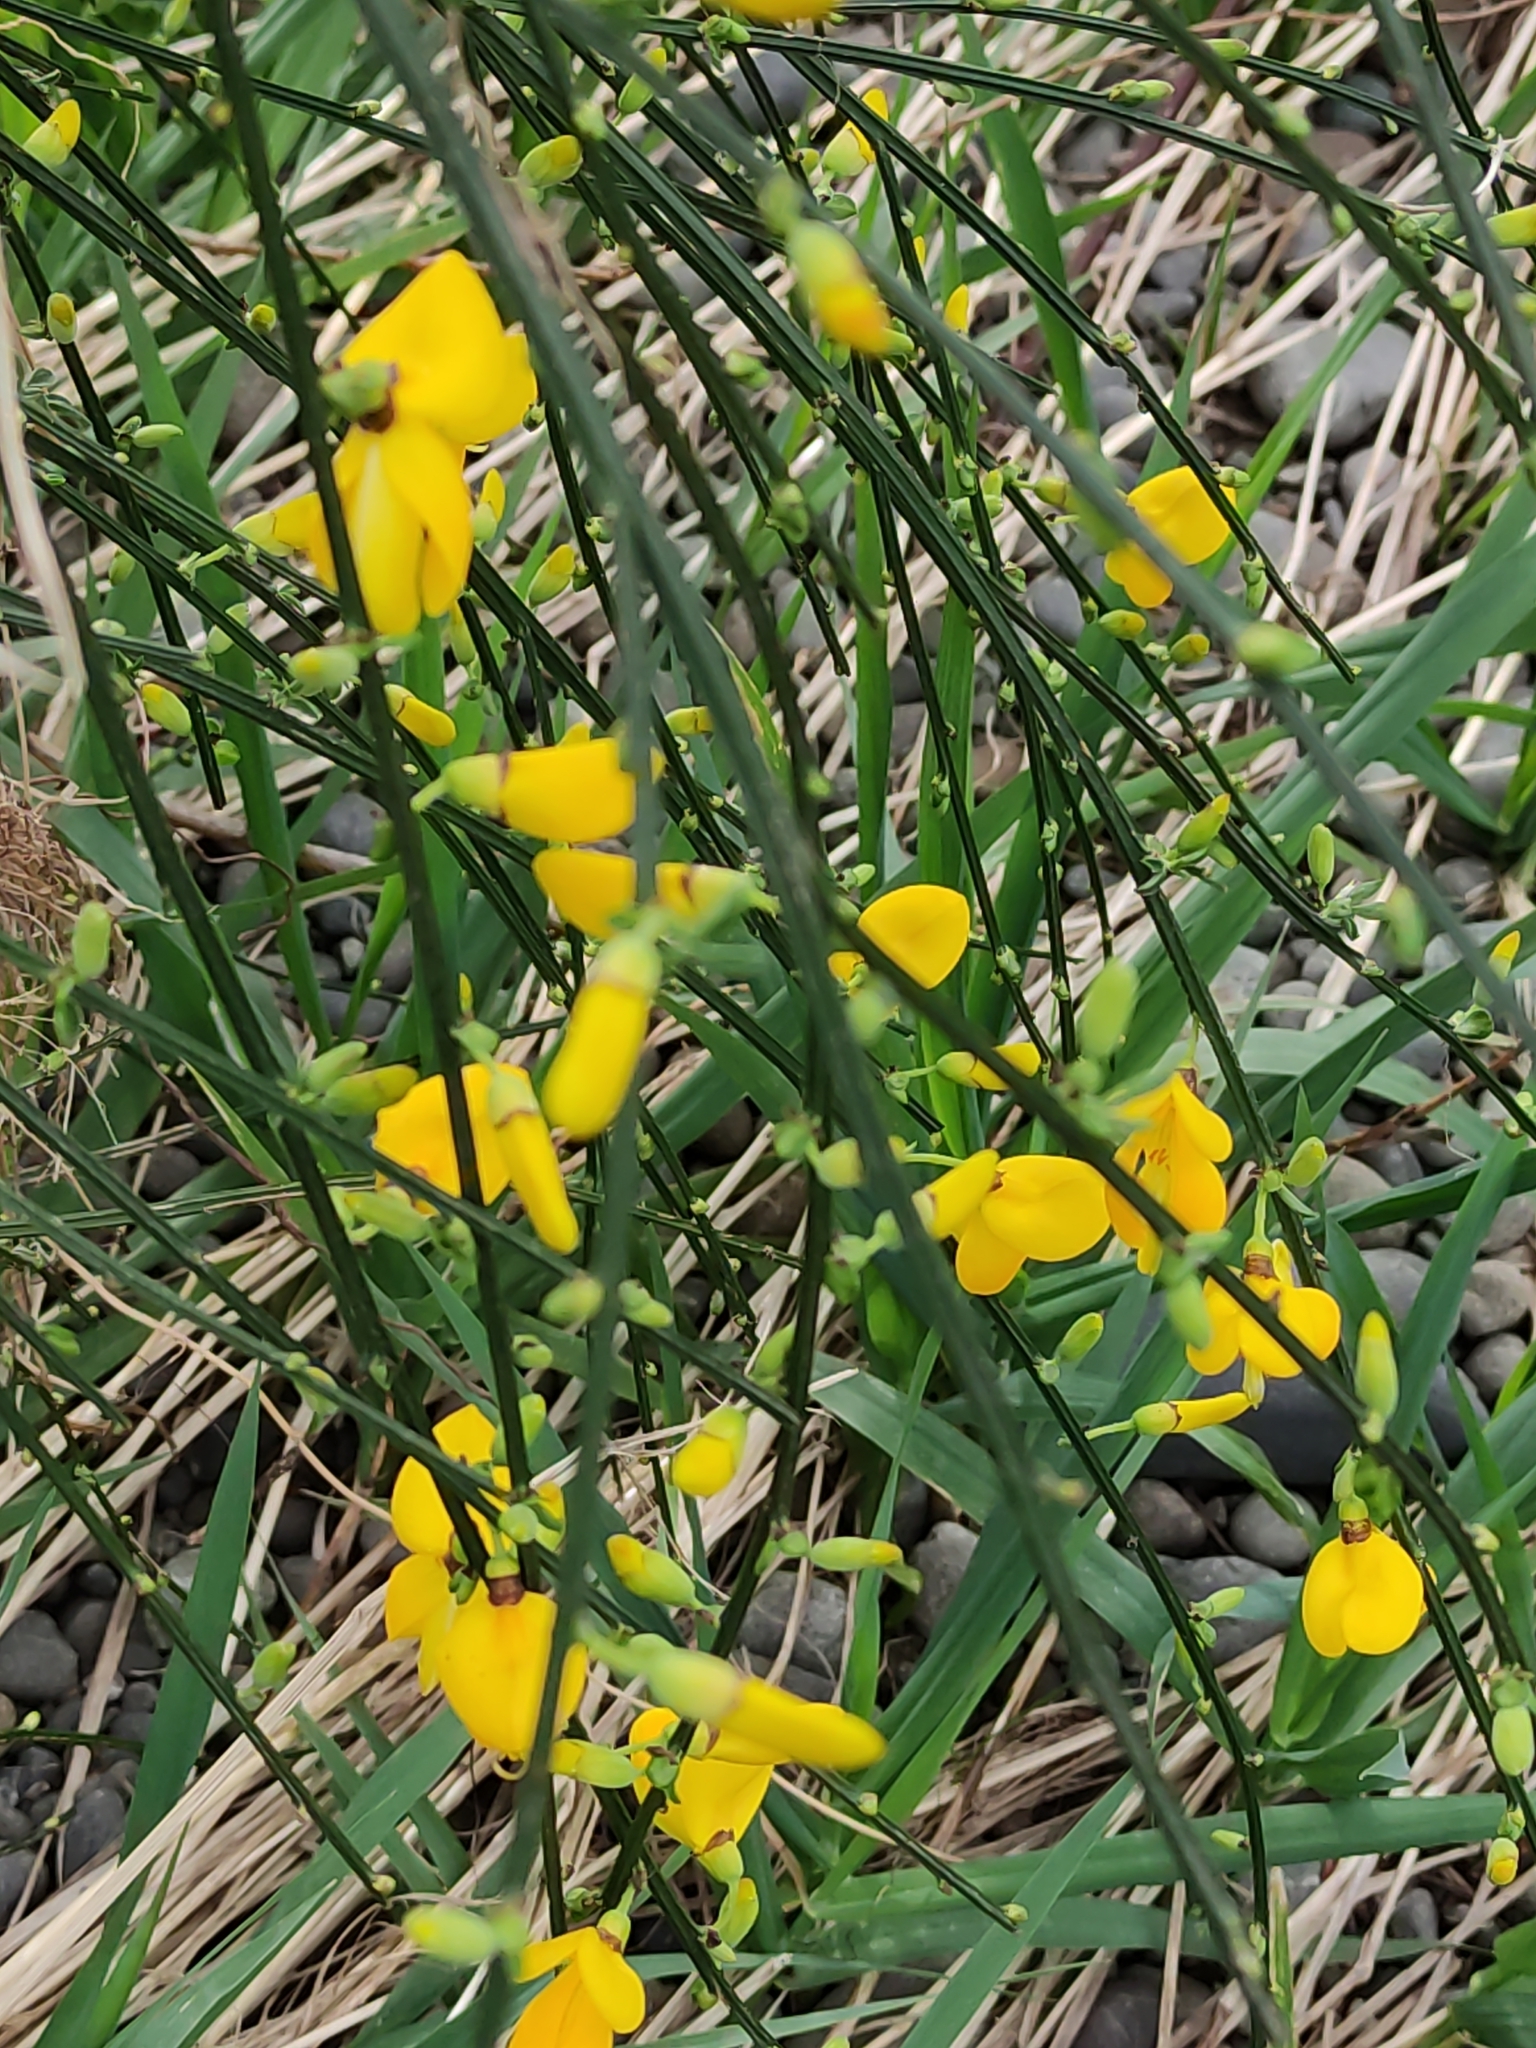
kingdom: Plantae
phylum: Tracheophyta
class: Magnoliopsida
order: Fabales
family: Fabaceae
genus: Cytisus
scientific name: Cytisus scoparius
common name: Scotch broom
